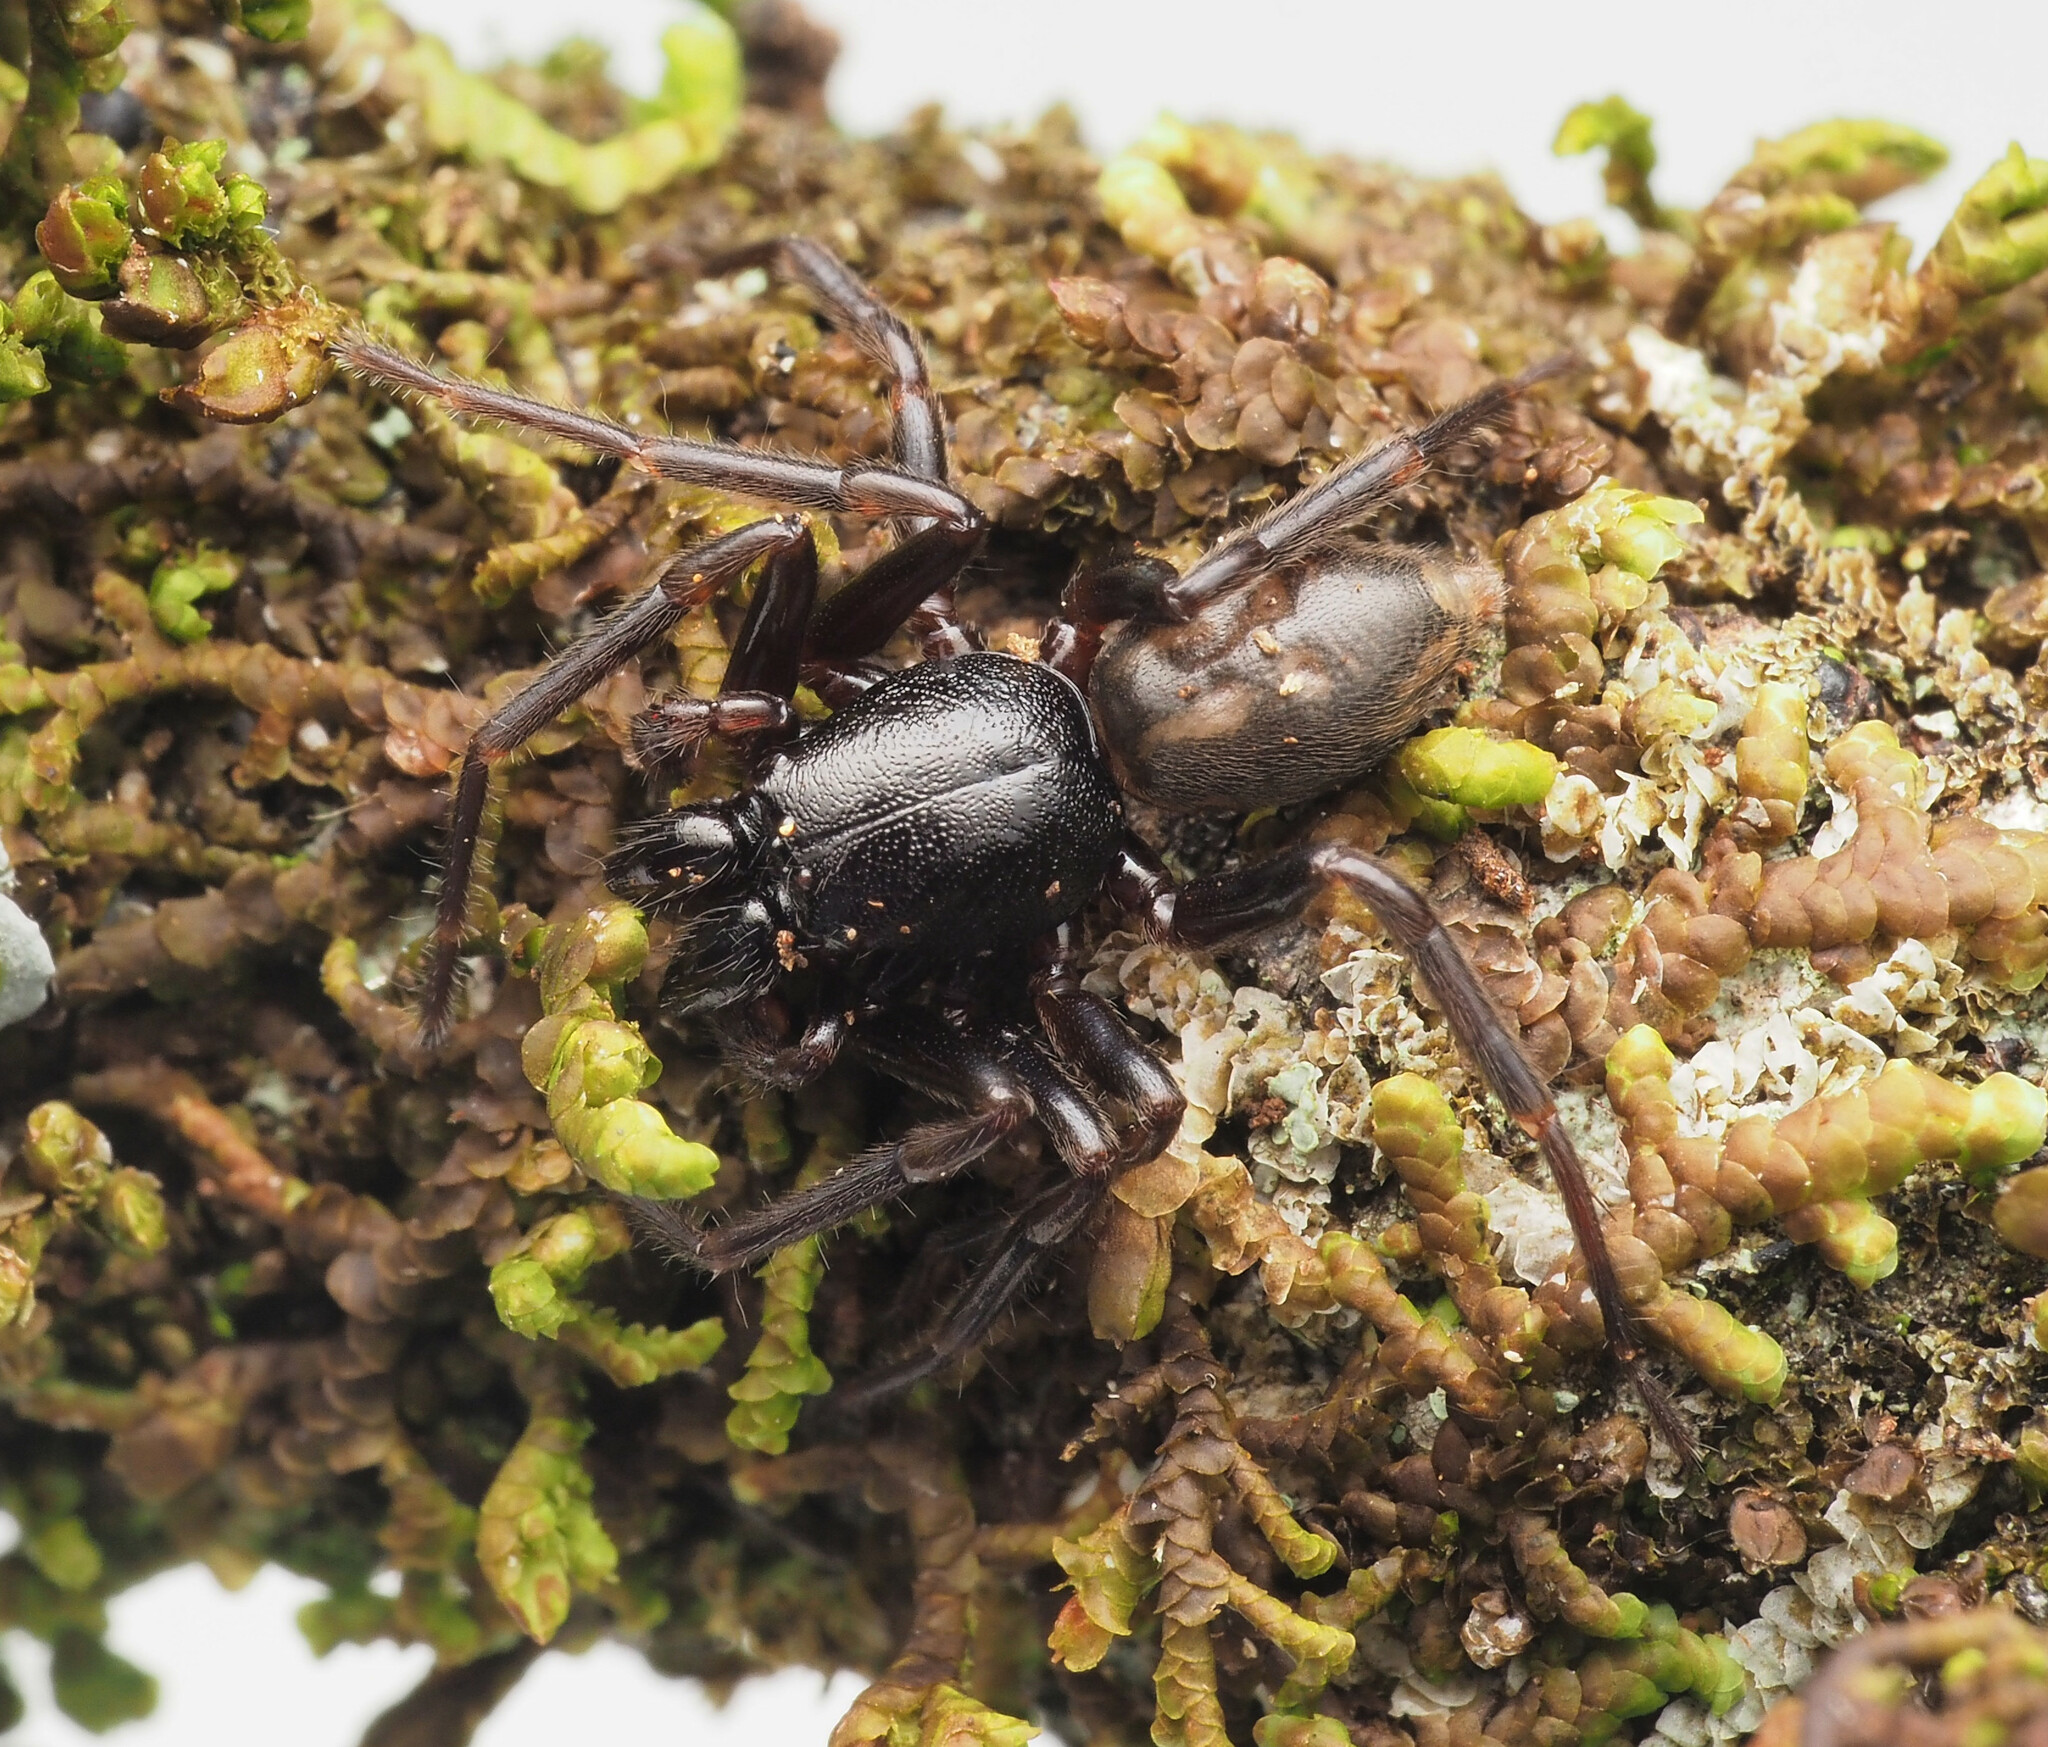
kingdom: Animalia
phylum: Arthropoda
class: Arachnida
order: Araneae
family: Trachycosmidae
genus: Desognaphosa
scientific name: Desognaphosa yabbra
